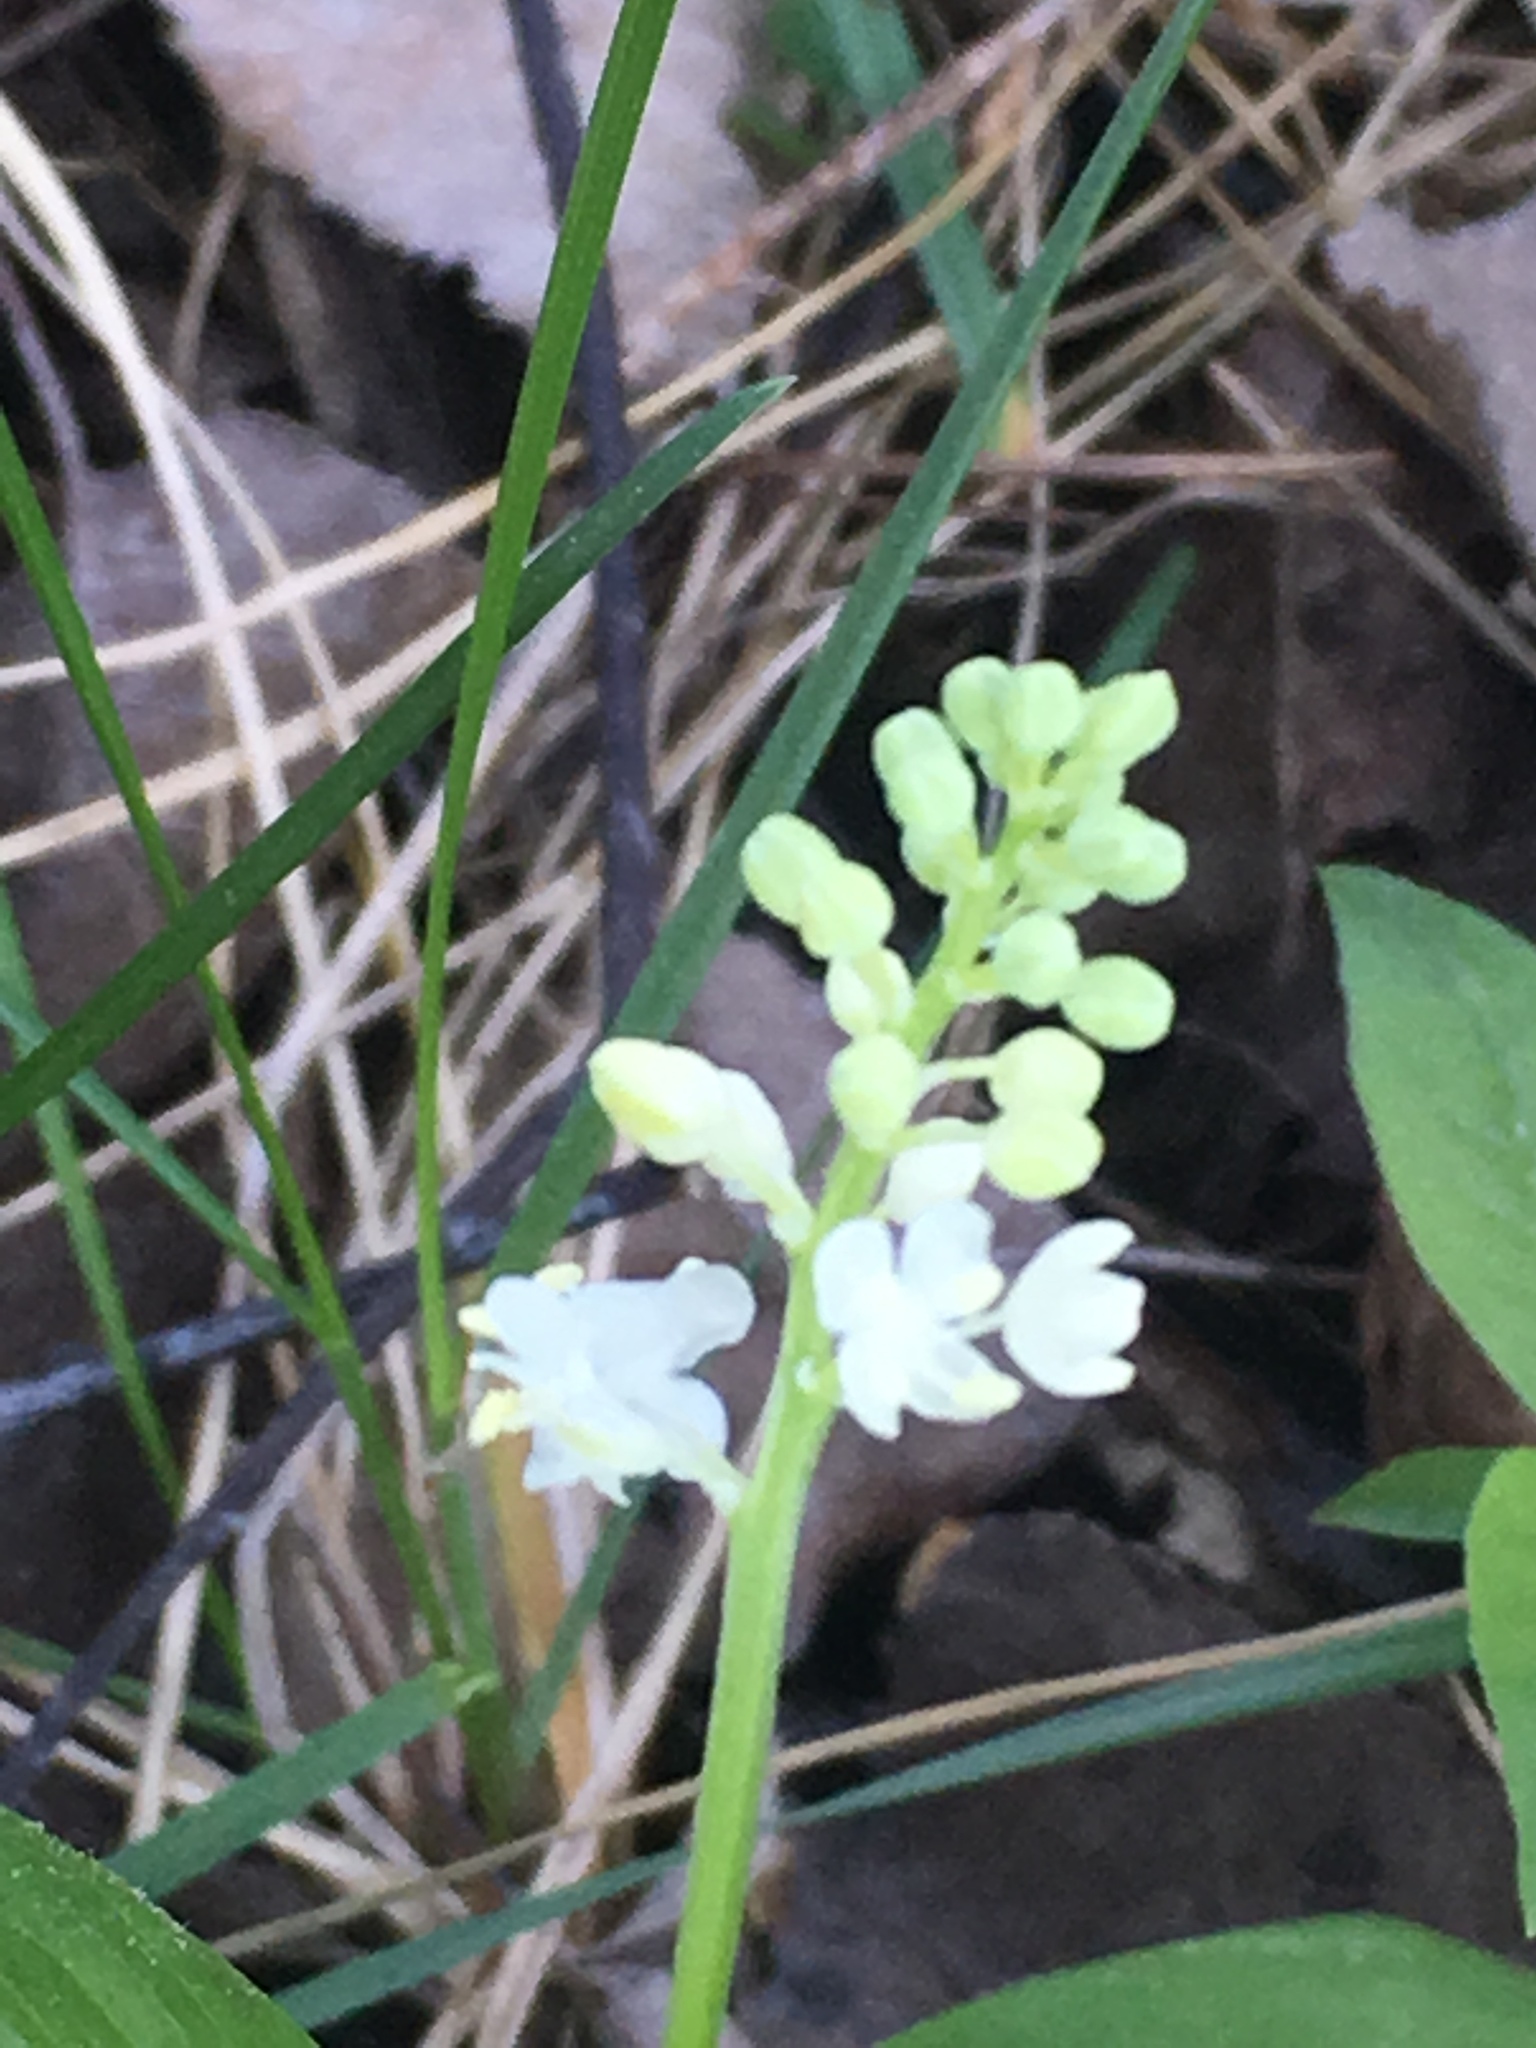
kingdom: Plantae
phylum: Tracheophyta
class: Liliopsida
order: Asparagales
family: Asparagaceae
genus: Maianthemum
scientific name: Maianthemum canadense
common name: False lily-of-the-valley
